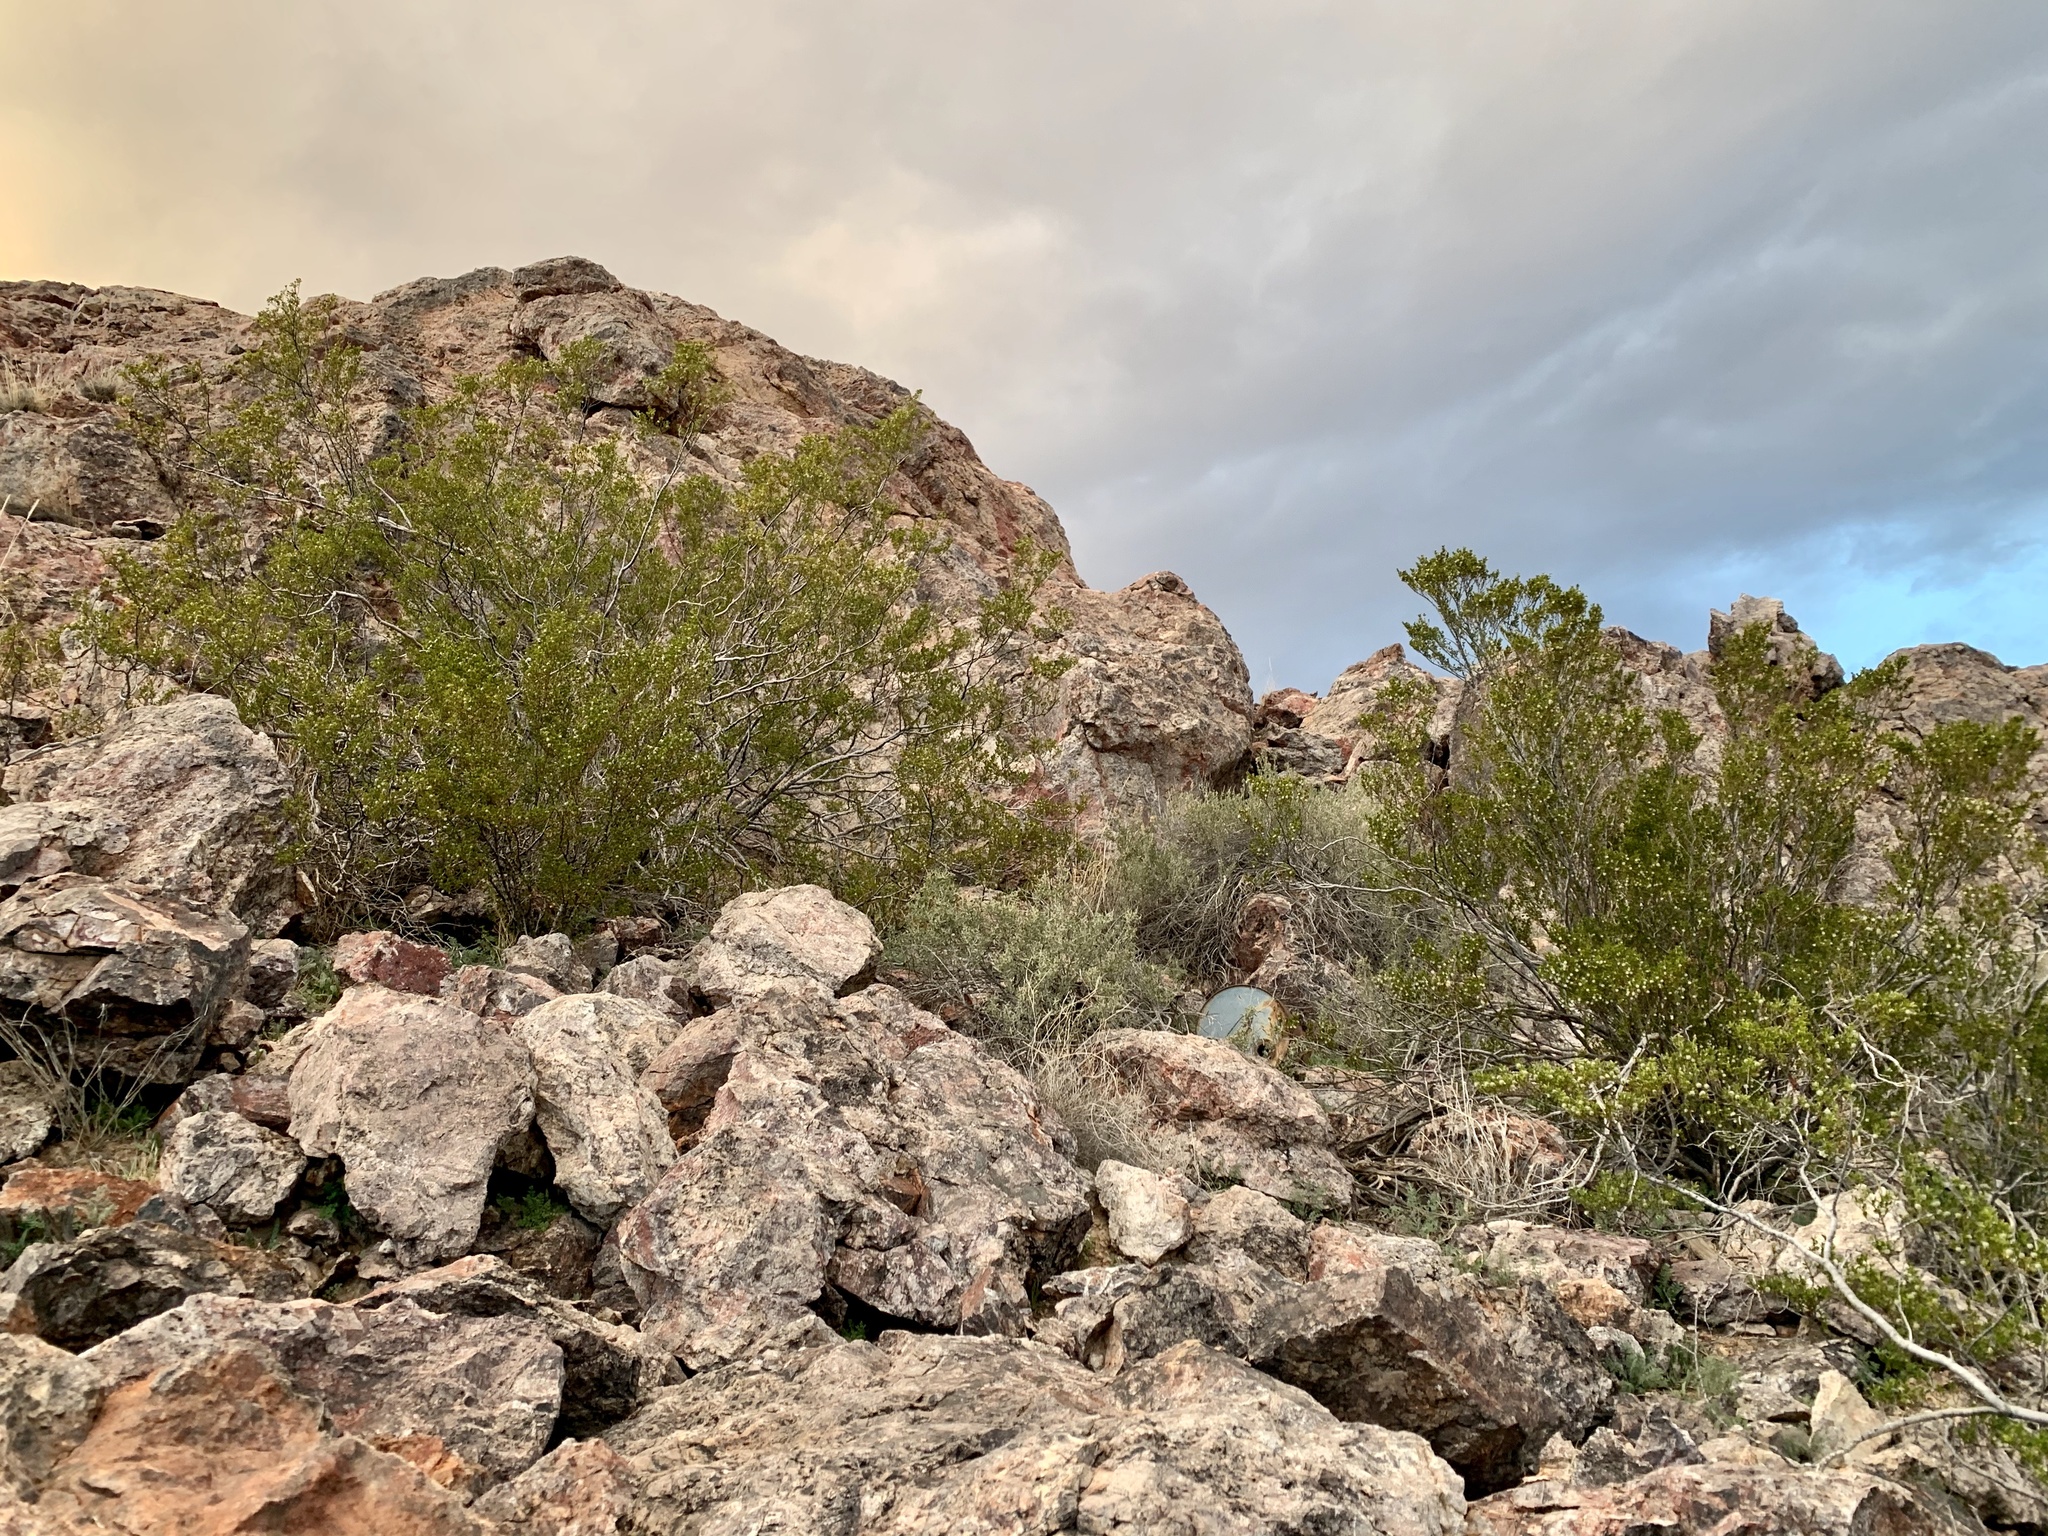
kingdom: Plantae
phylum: Tracheophyta
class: Magnoliopsida
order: Zygophyllales
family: Zygophyllaceae
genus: Larrea
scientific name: Larrea tridentata
